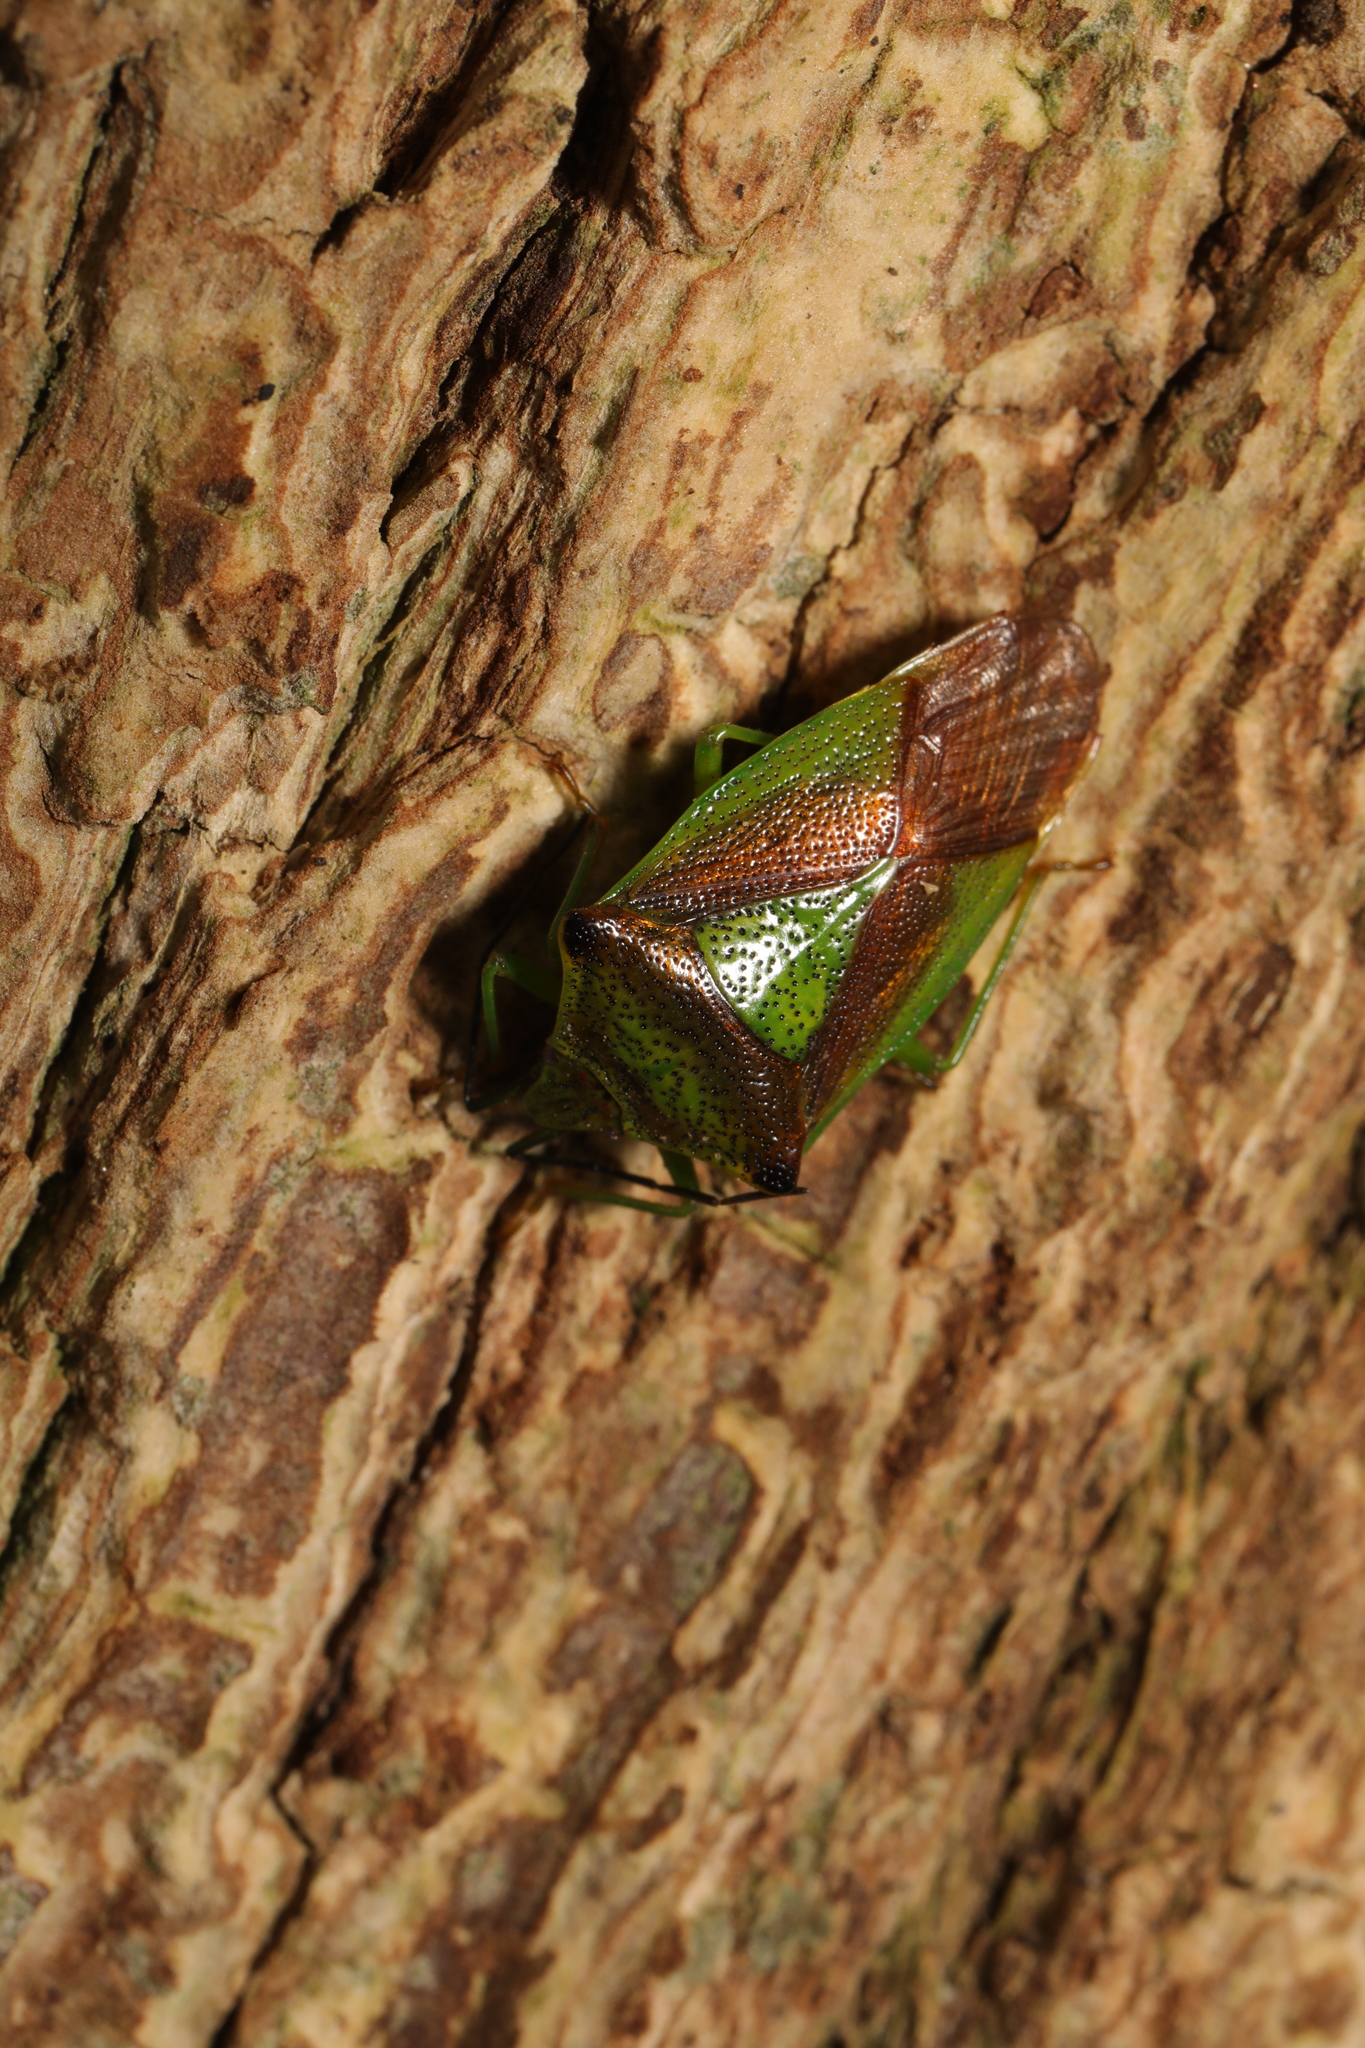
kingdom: Animalia
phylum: Arthropoda
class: Insecta
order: Hemiptera
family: Acanthosomatidae
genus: Acanthosoma
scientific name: Acanthosoma haemorrhoidale
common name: Hawthorn shieldbug
